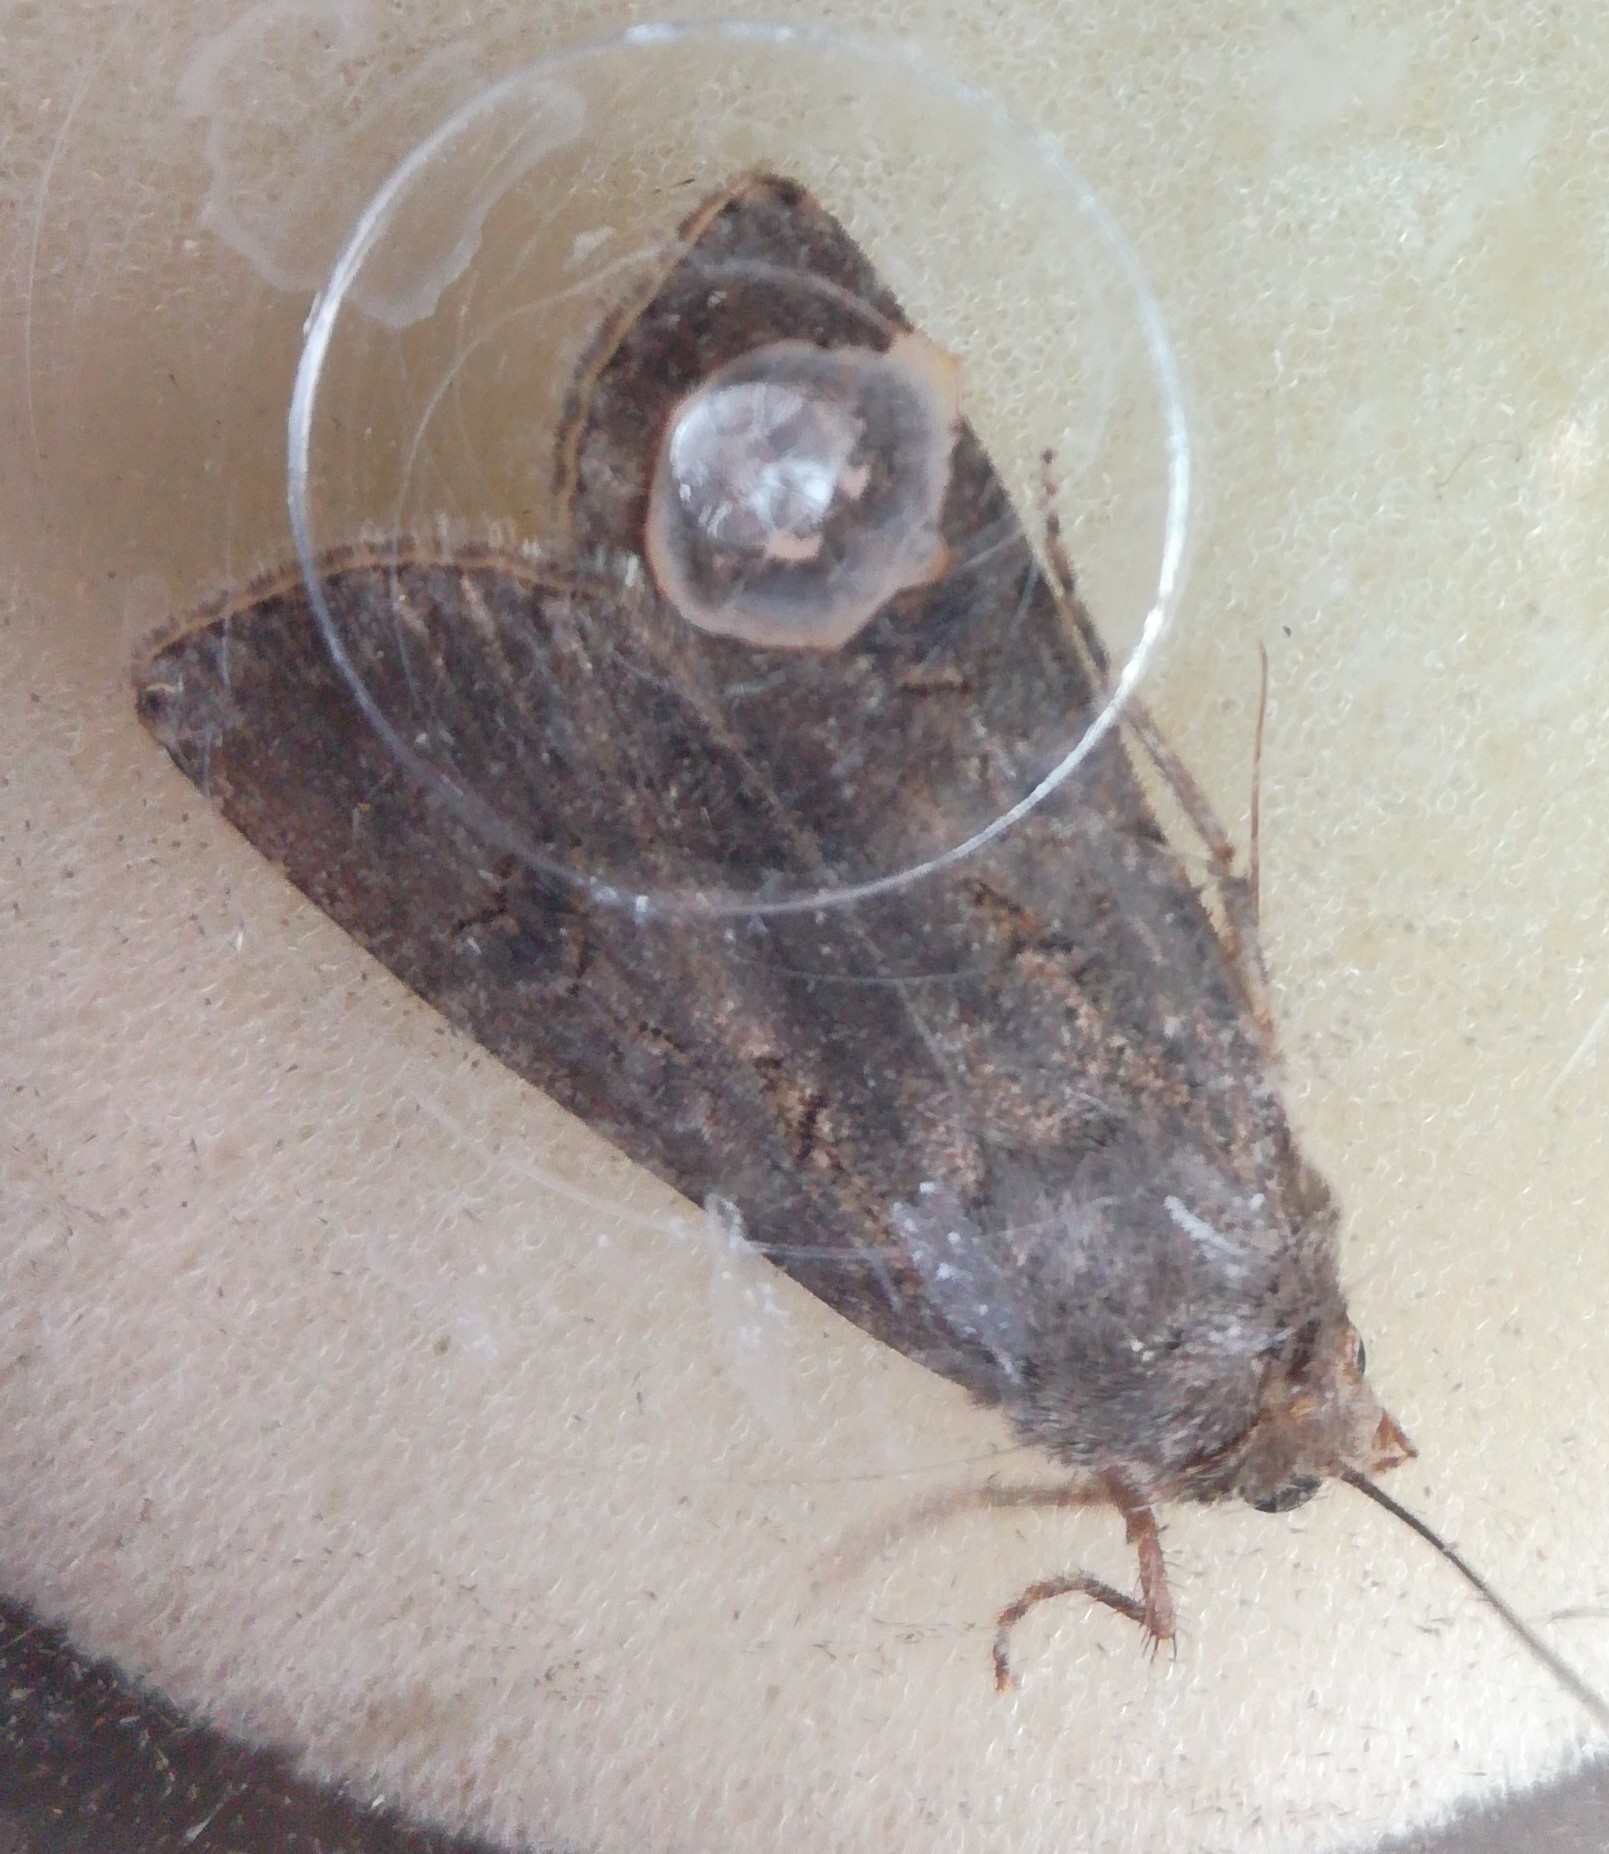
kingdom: Animalia
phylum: Arthropoda
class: Insecta
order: Lepidoptera
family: Noctuidae
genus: Agrotis
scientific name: Agrotis segetum
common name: Turnip moth
